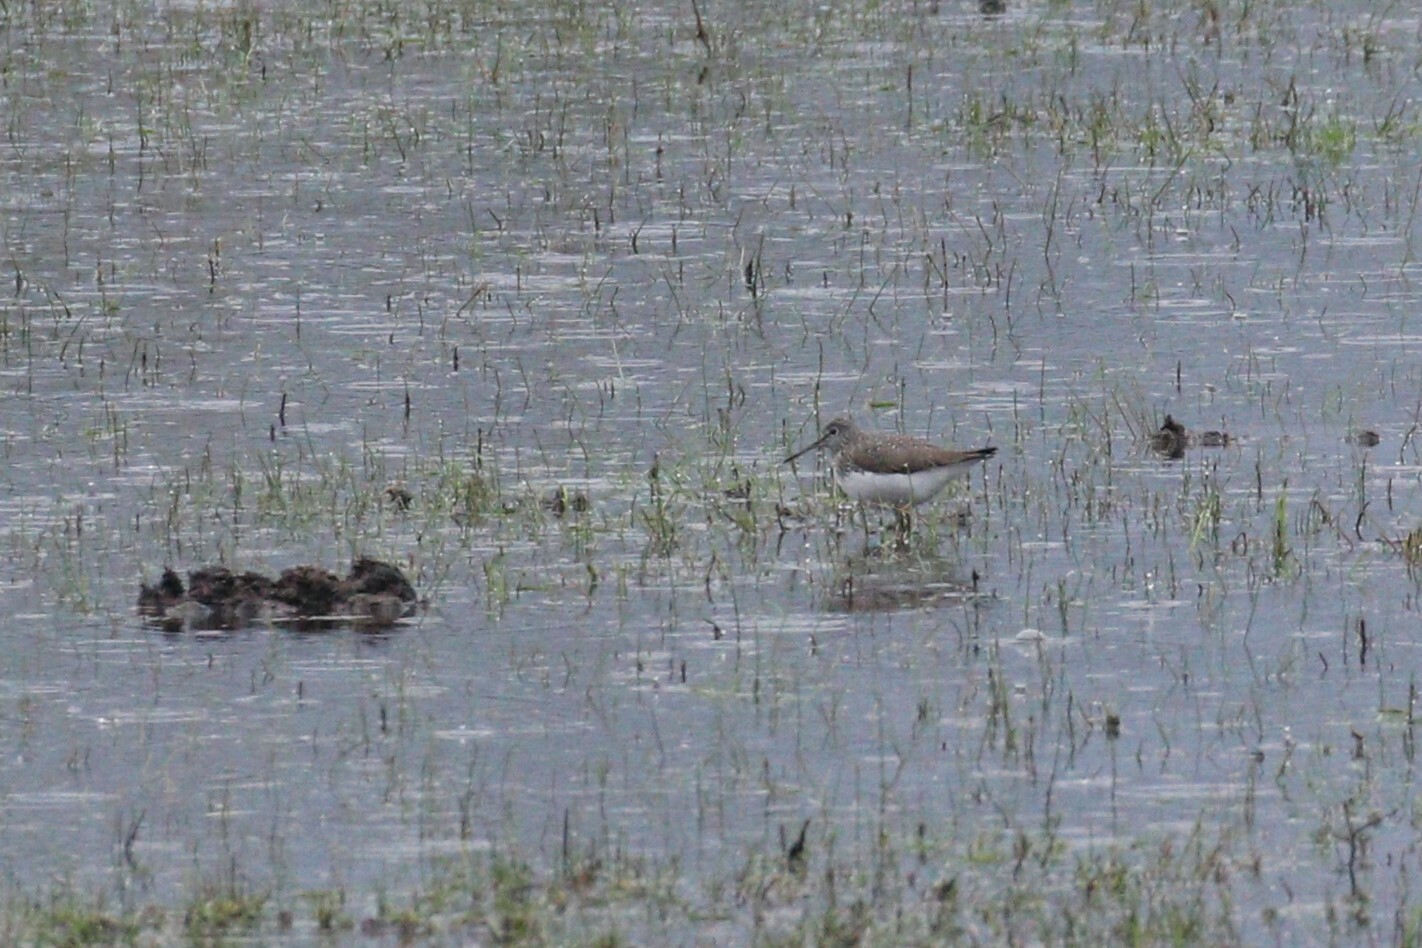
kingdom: Animalia
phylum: Chordata
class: Aves
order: Charadriiformes
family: Scolopacidae
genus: Tringa
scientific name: Tringa ochropus
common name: Green sandpiper
